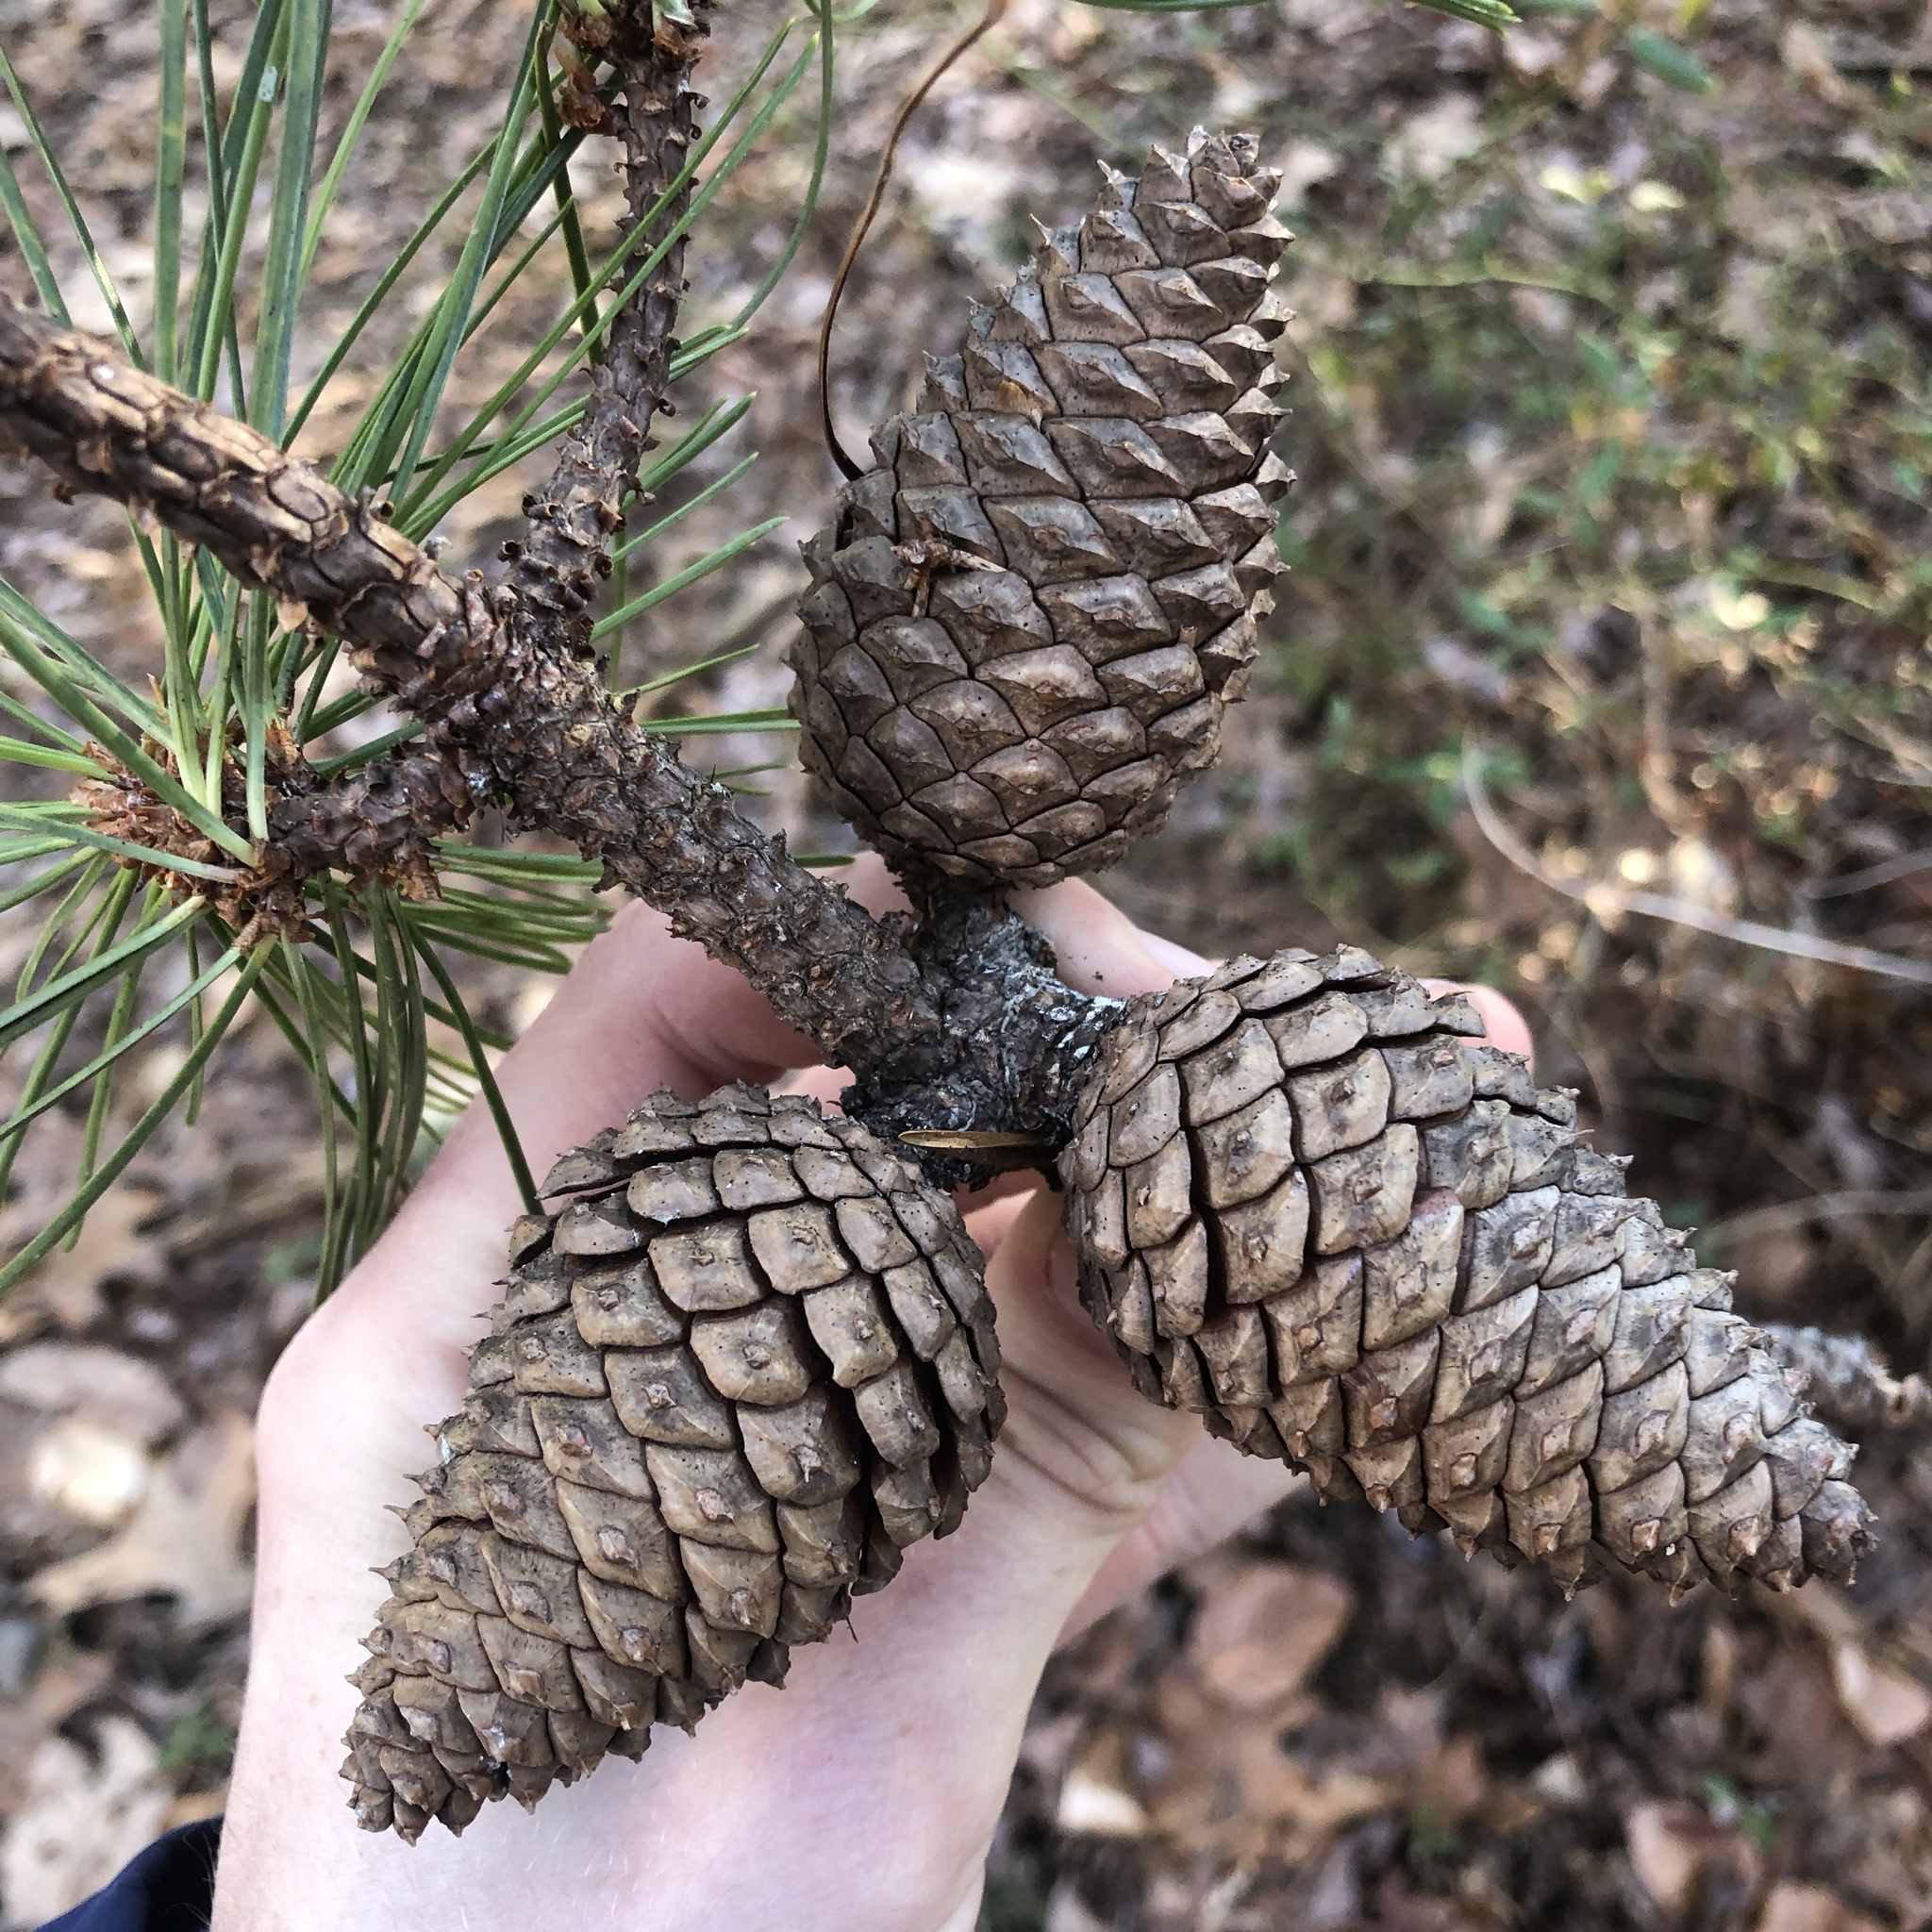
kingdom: Plantae
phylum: Tracheophyta
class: Pinopsida
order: Pinales
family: Pinaceae
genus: Pinus
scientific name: Pinus rigida
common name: Pitch pine
